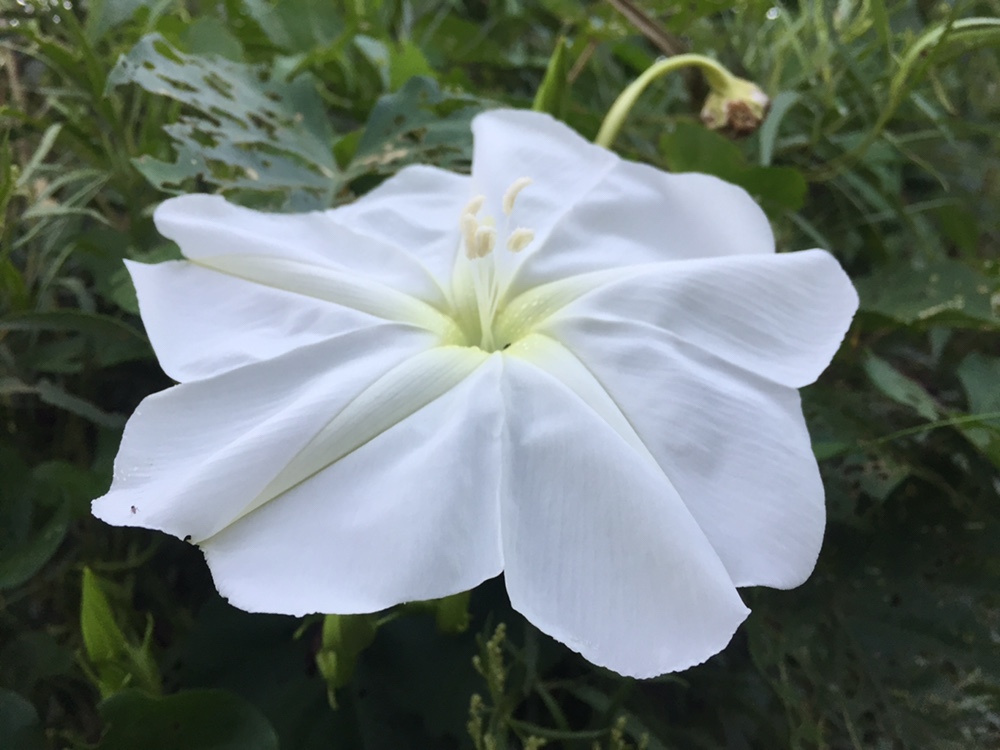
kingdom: Plantae
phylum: Tracheophyta
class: Magnoliopsida
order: Solanales
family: Convolvulaceae
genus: Ipomoea
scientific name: Ipomoea alba
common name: Moonflower
